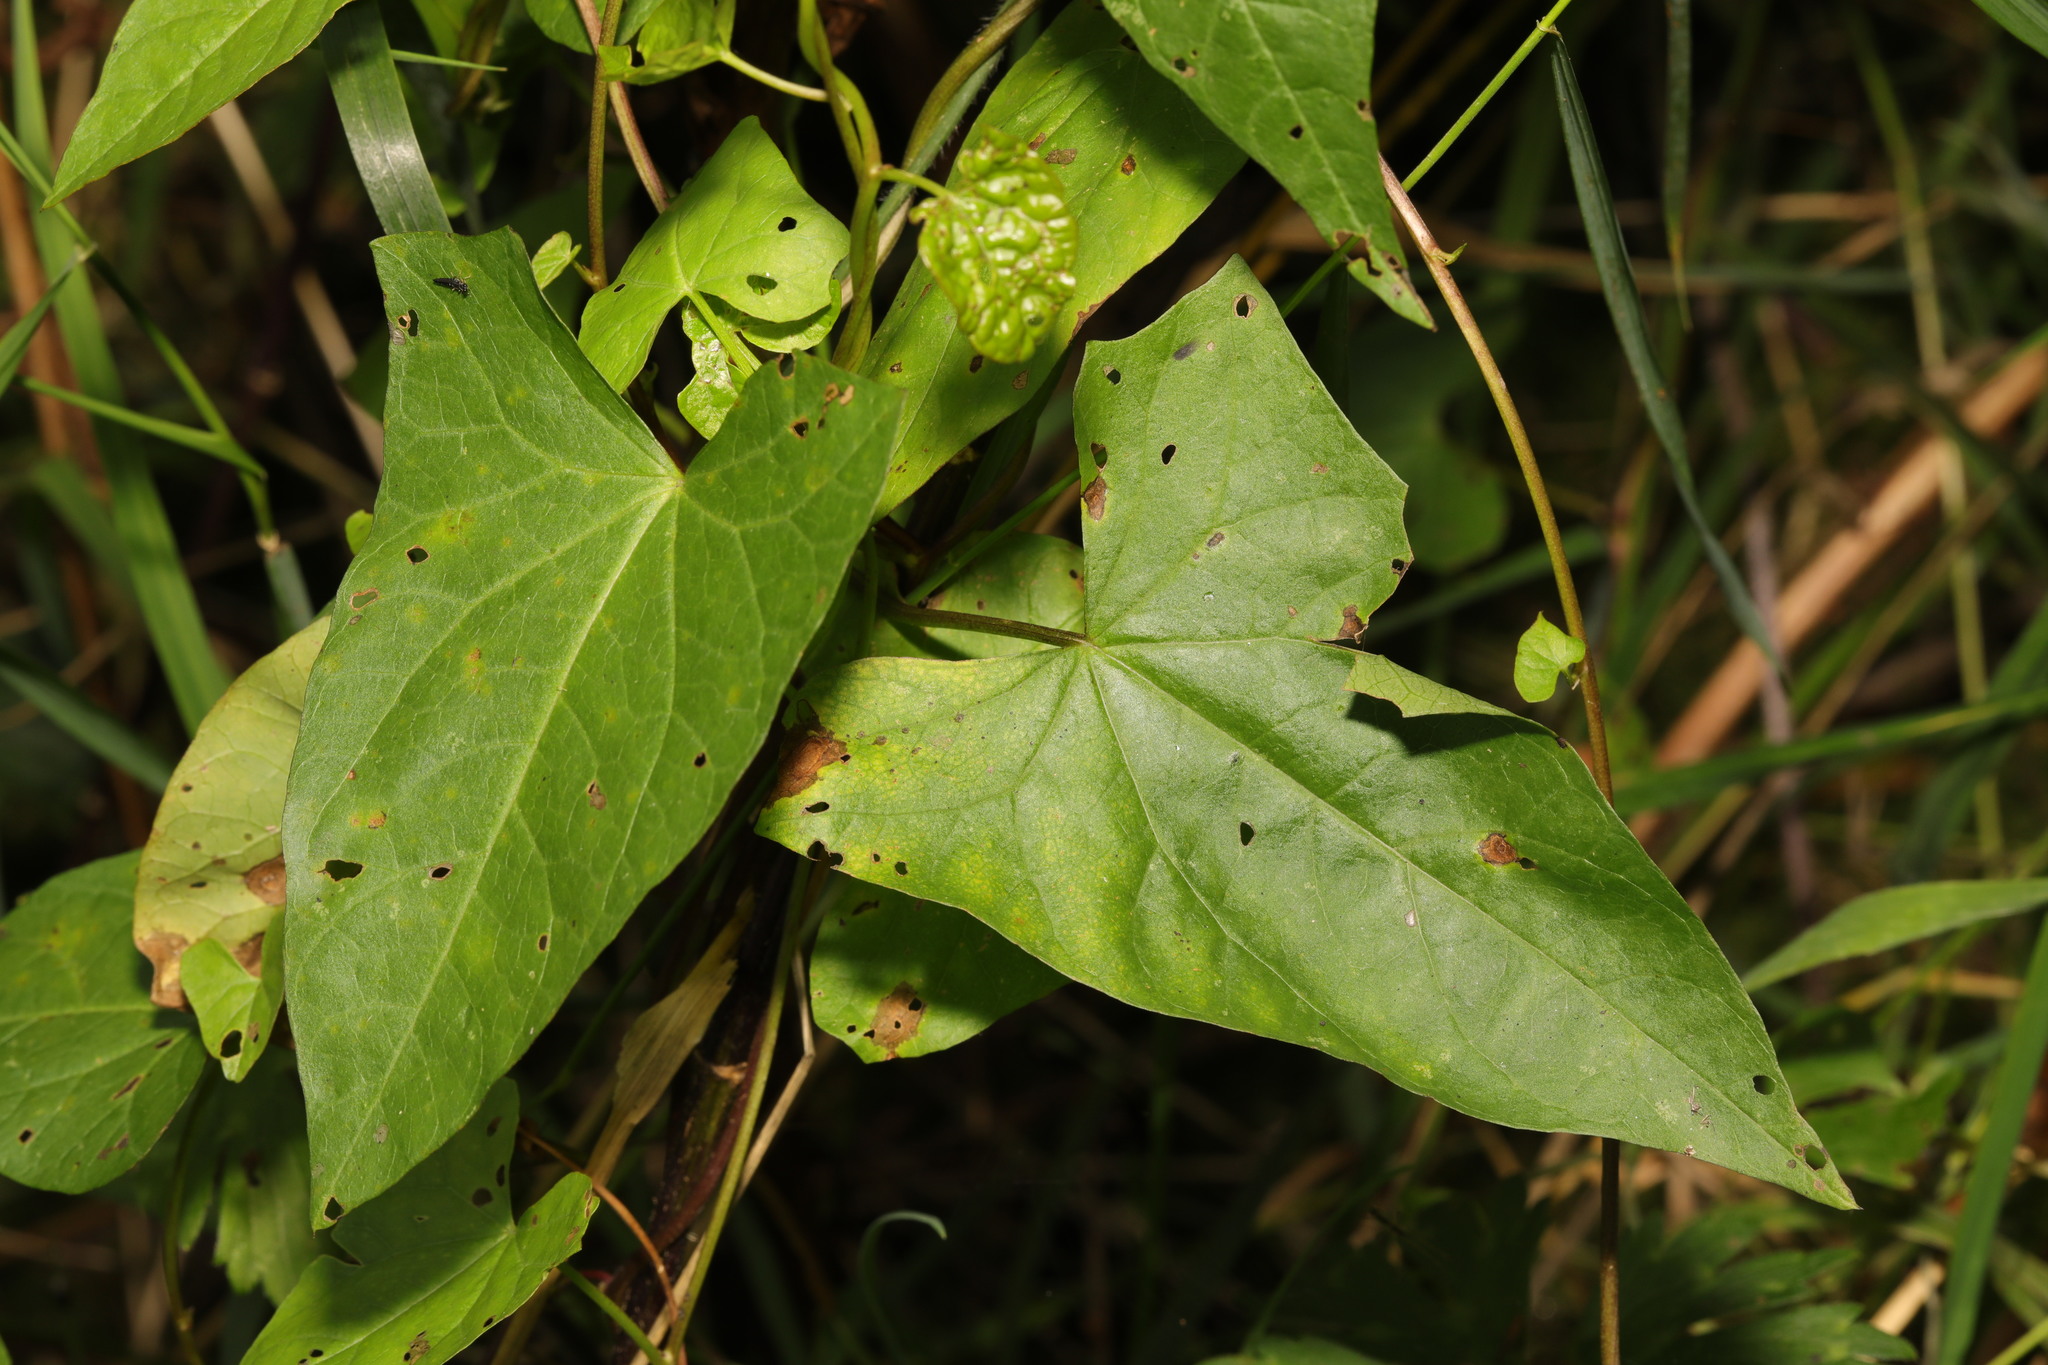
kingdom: Plantae
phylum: Tracheophyta
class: Magnoliopsida
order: Solanales
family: Convolvulaceae
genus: Calystegia
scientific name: Calystegia
